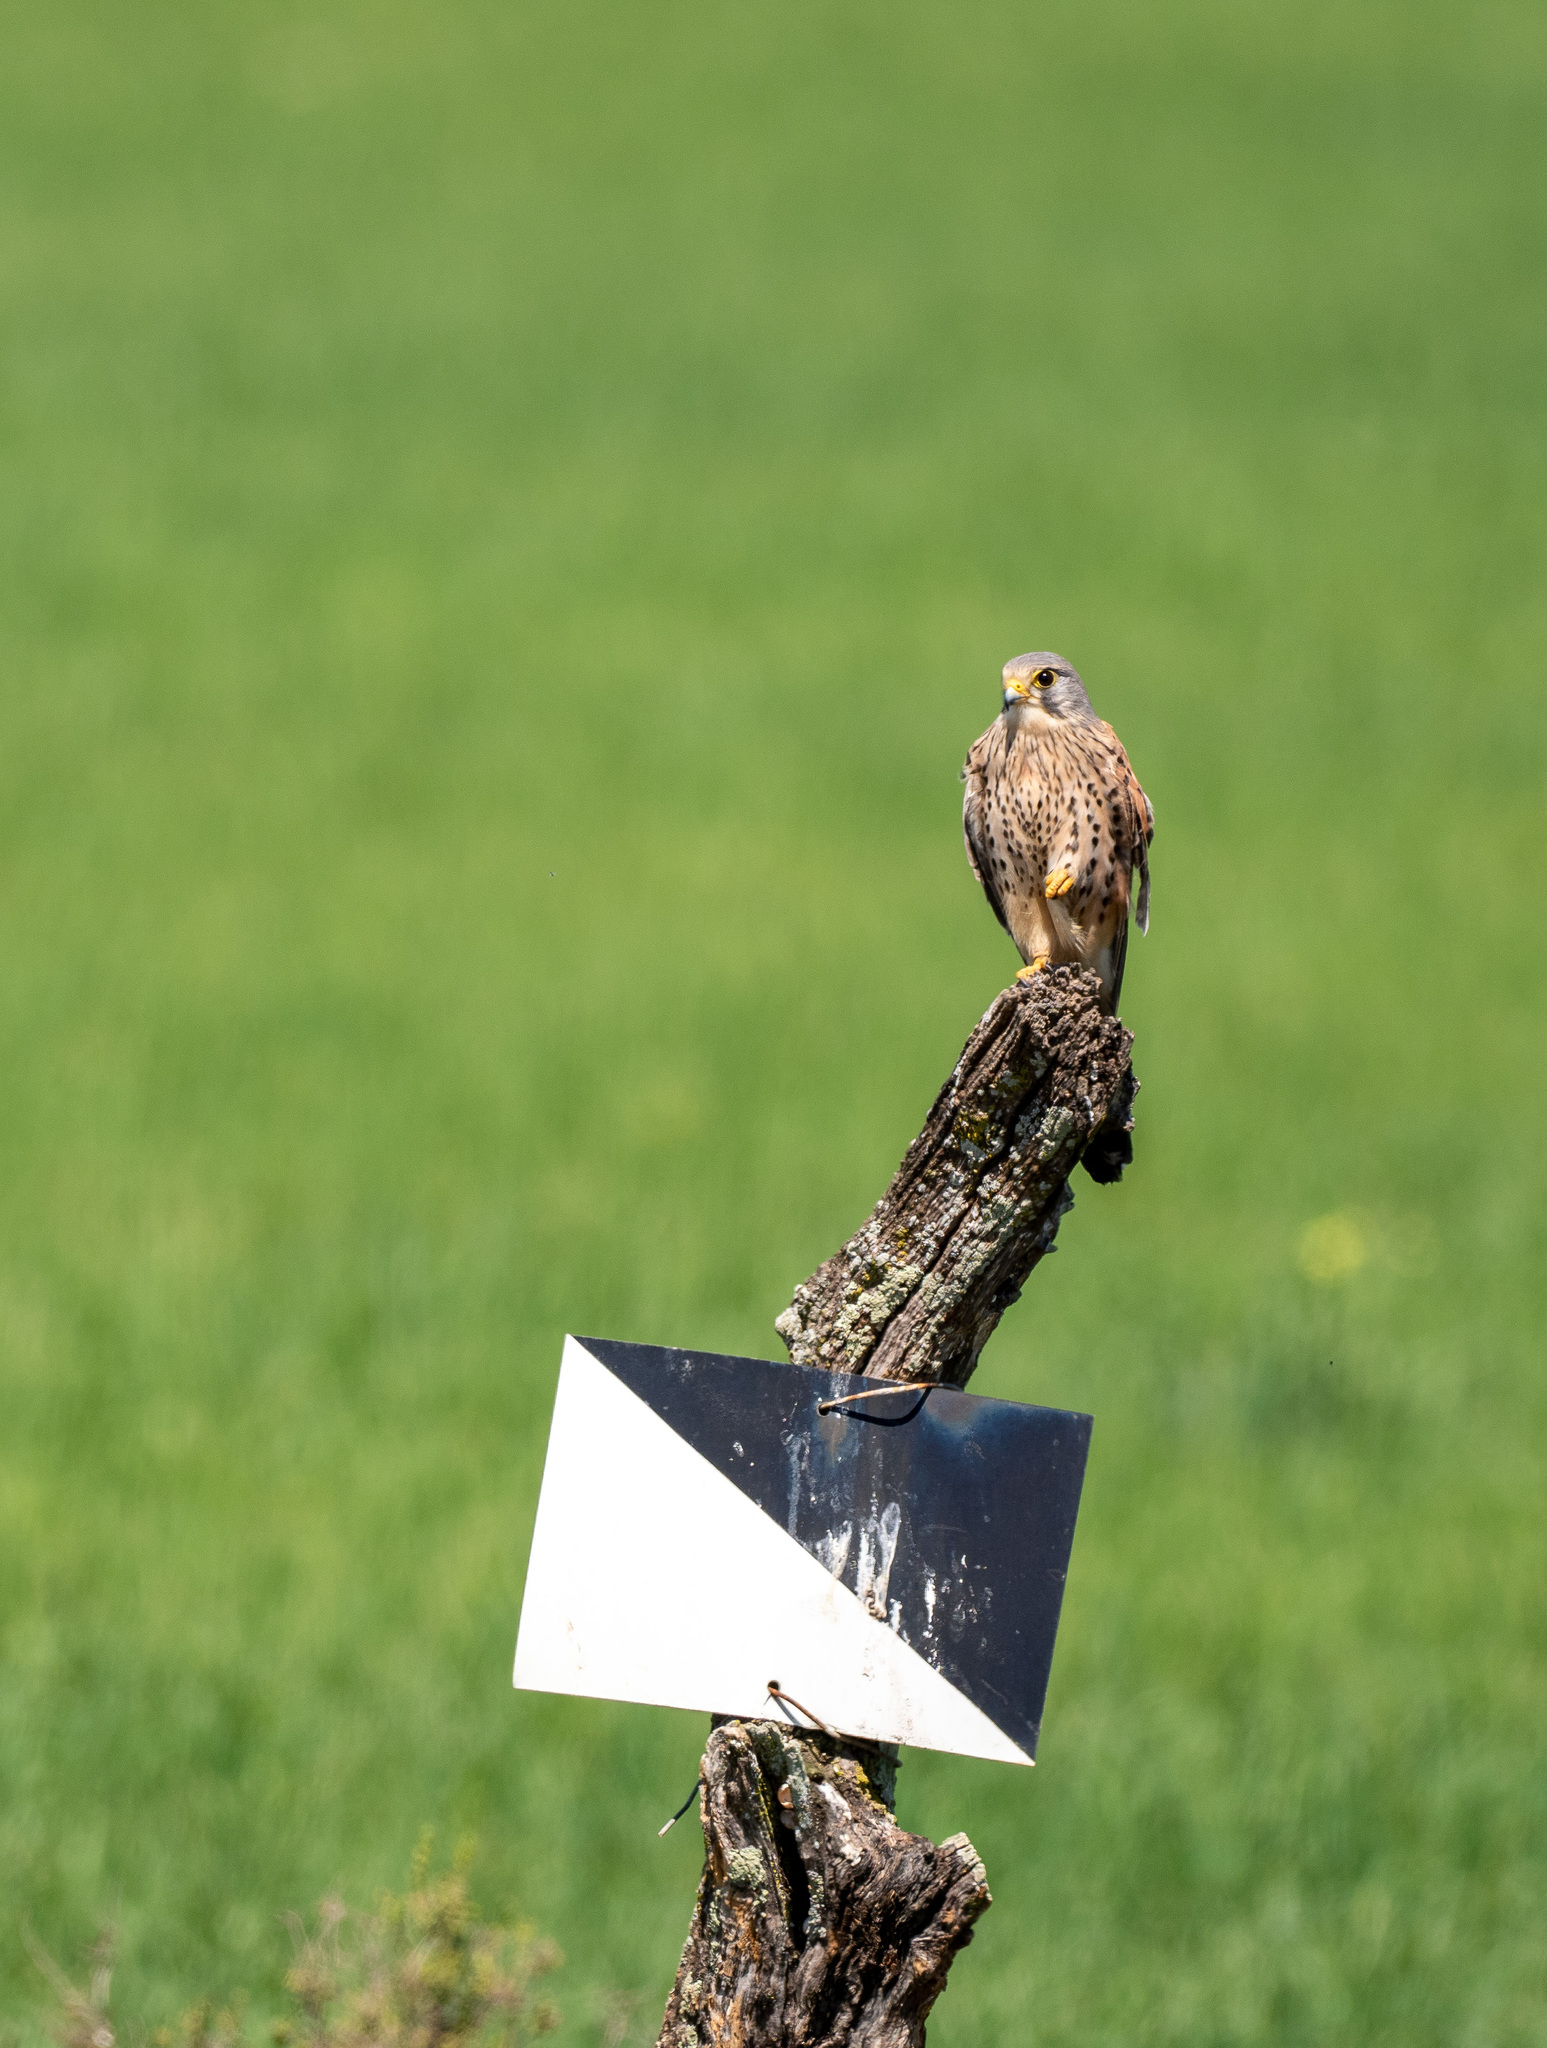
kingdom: Animalia
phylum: Chordata
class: Aves
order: Falconiformes
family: Falconidae
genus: Falco
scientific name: Falco tinnunculus
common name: Common kestrel
